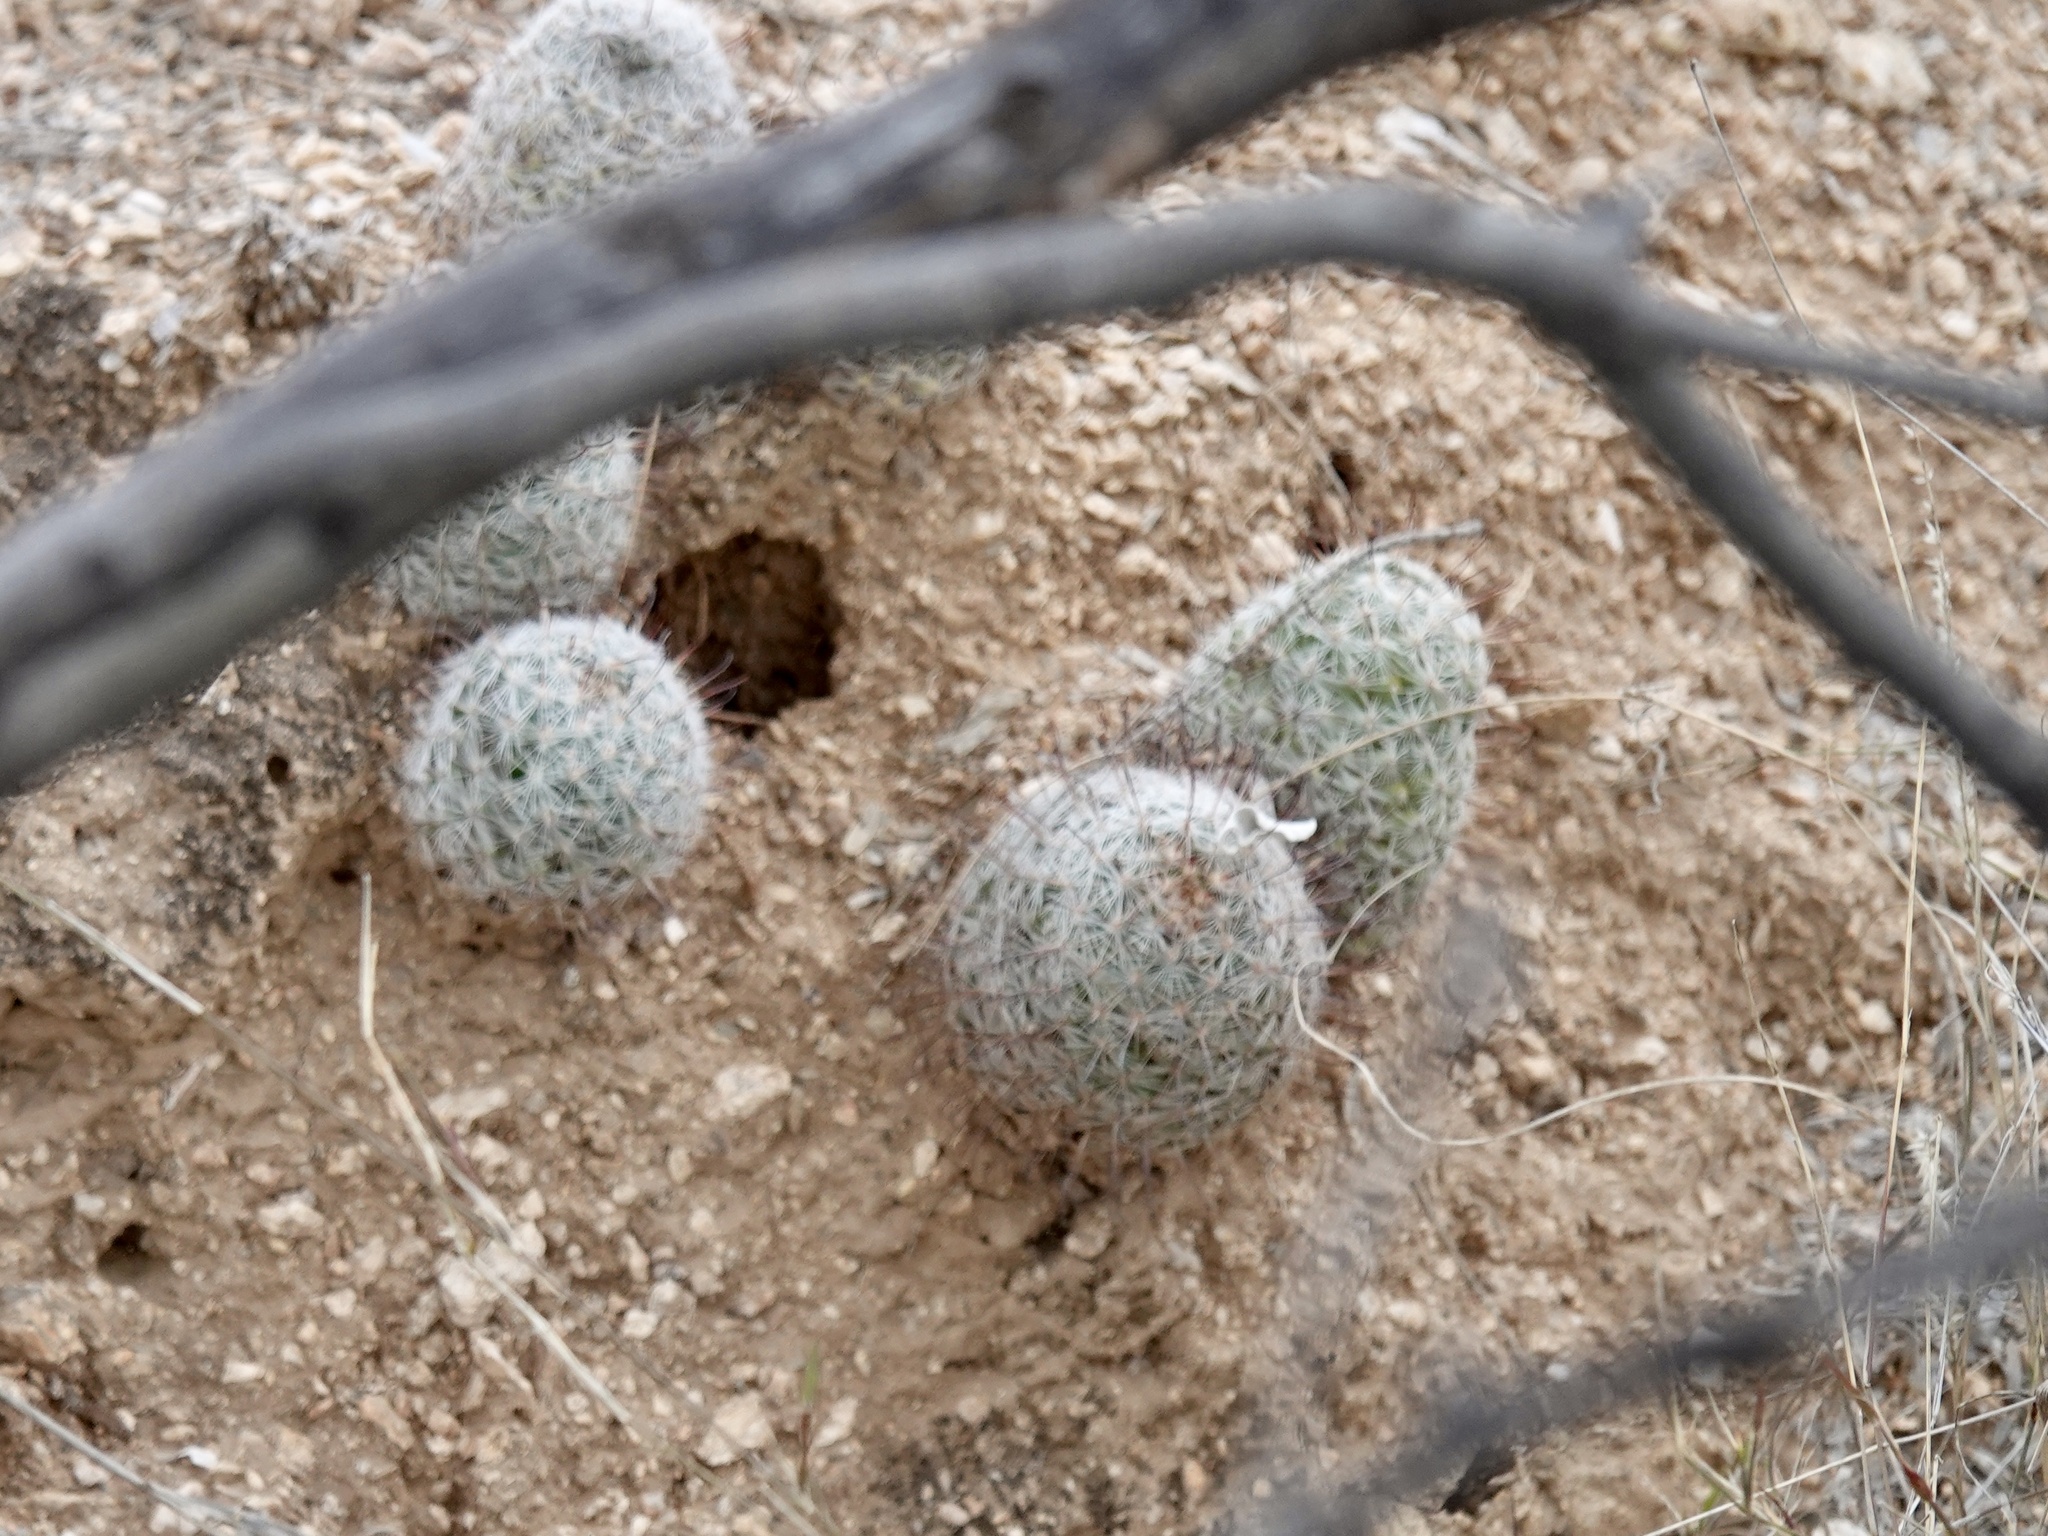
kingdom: Plantae
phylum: Tracheophyta
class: Magnoliopsida
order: Caryophyllales
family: Cactaceae
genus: Cochemiea
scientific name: Cochemiea grahamii
